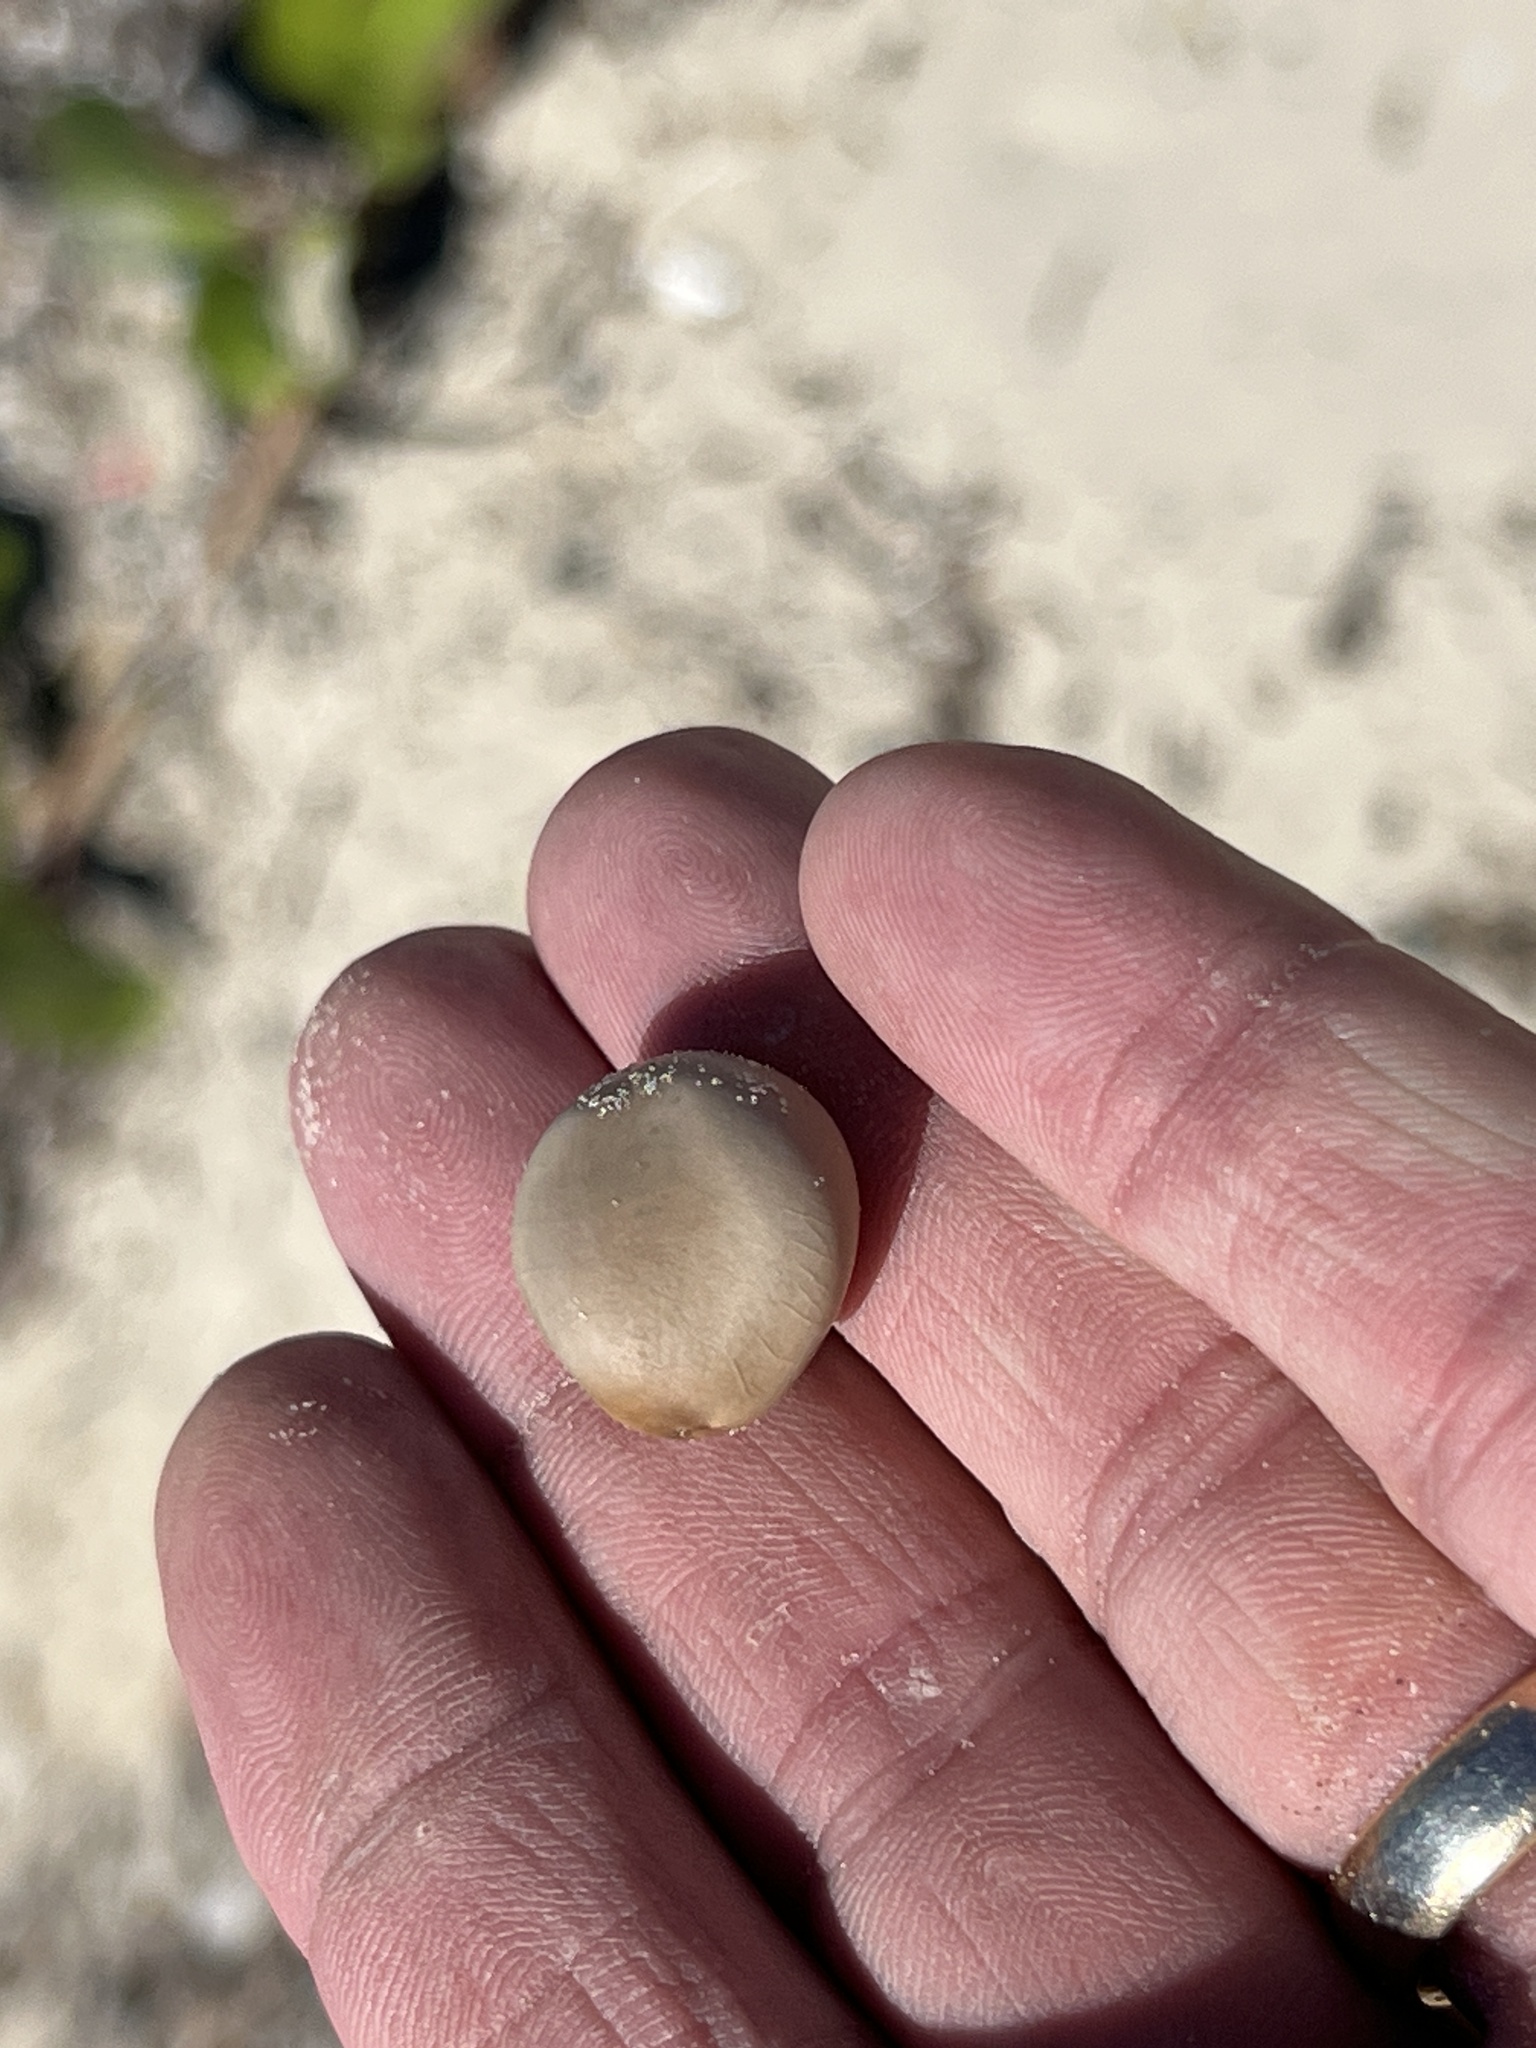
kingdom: Plantae
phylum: Tracheophyta
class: Magnoliopsida
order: Fabales
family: Fabaceae
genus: Guilandina
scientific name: Guilandina bonduc
